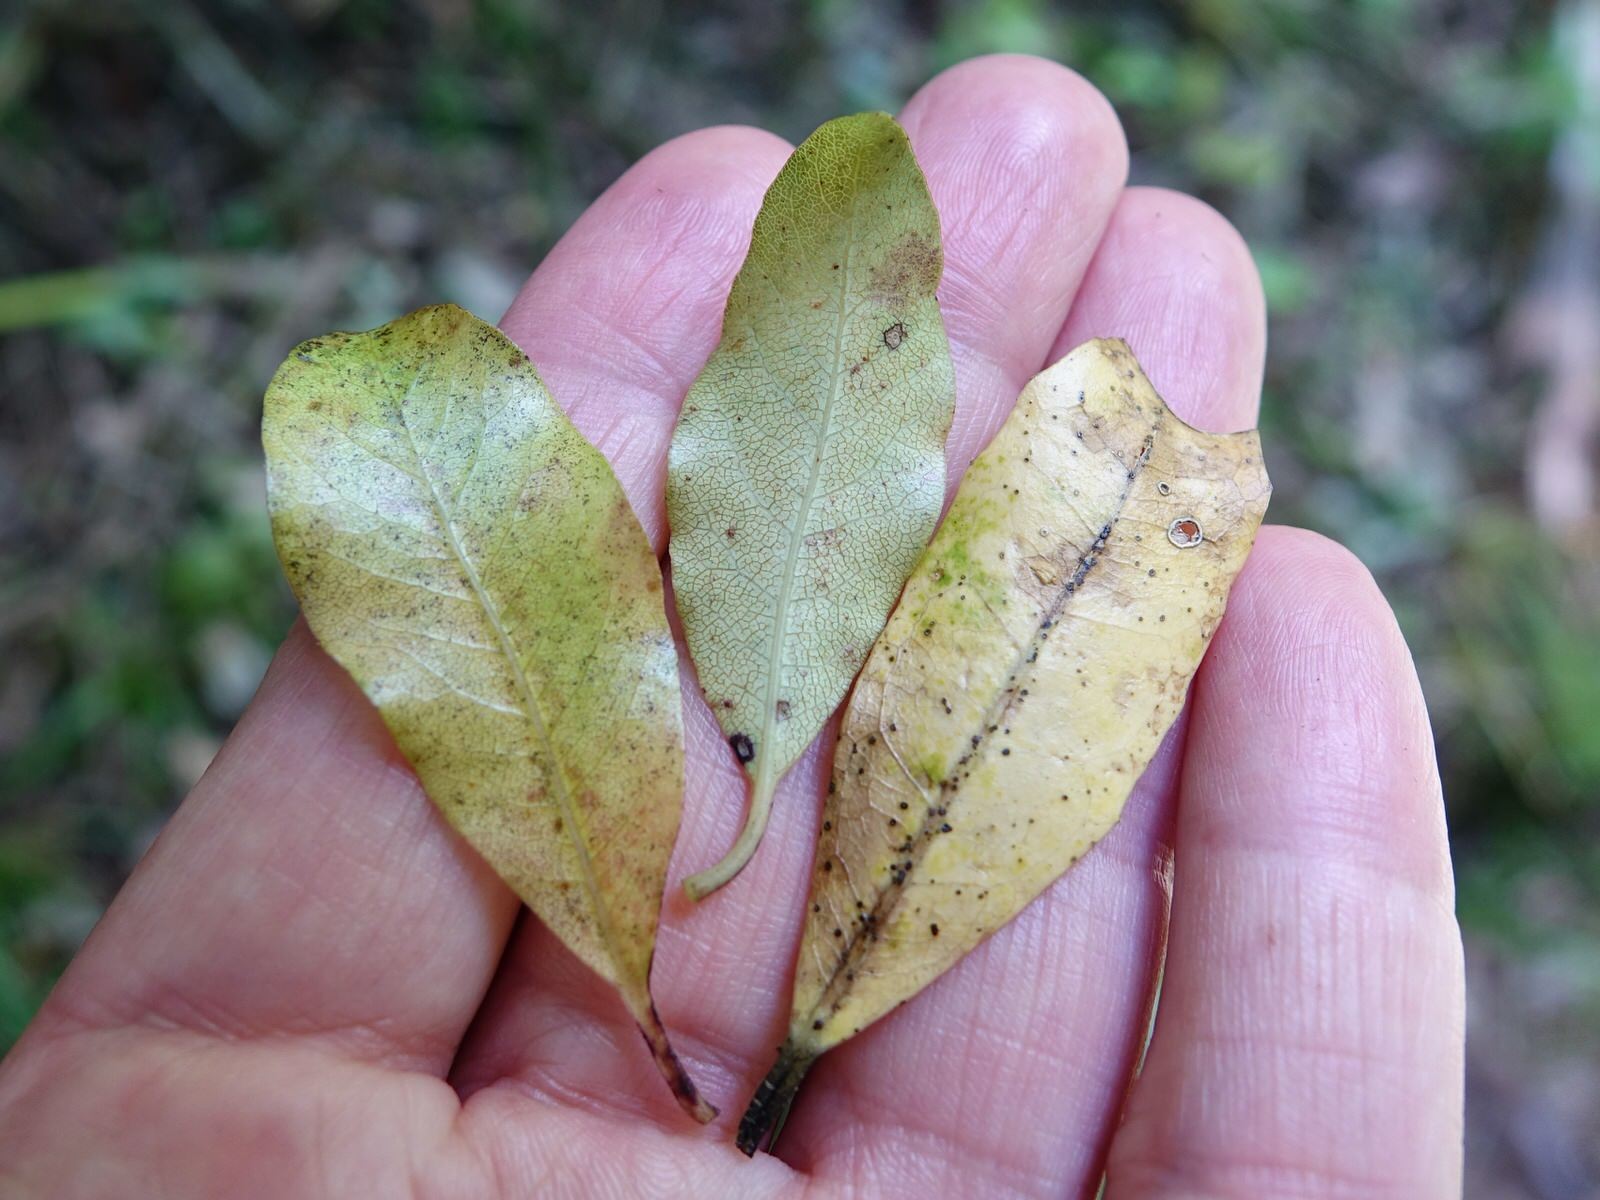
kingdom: Plantae
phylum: Tracheophyta
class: Magnoliopsida
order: Apiales
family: Pittosporaceae
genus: Pittosporum
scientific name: Pittosporum tenuifolium
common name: Kohuhu
